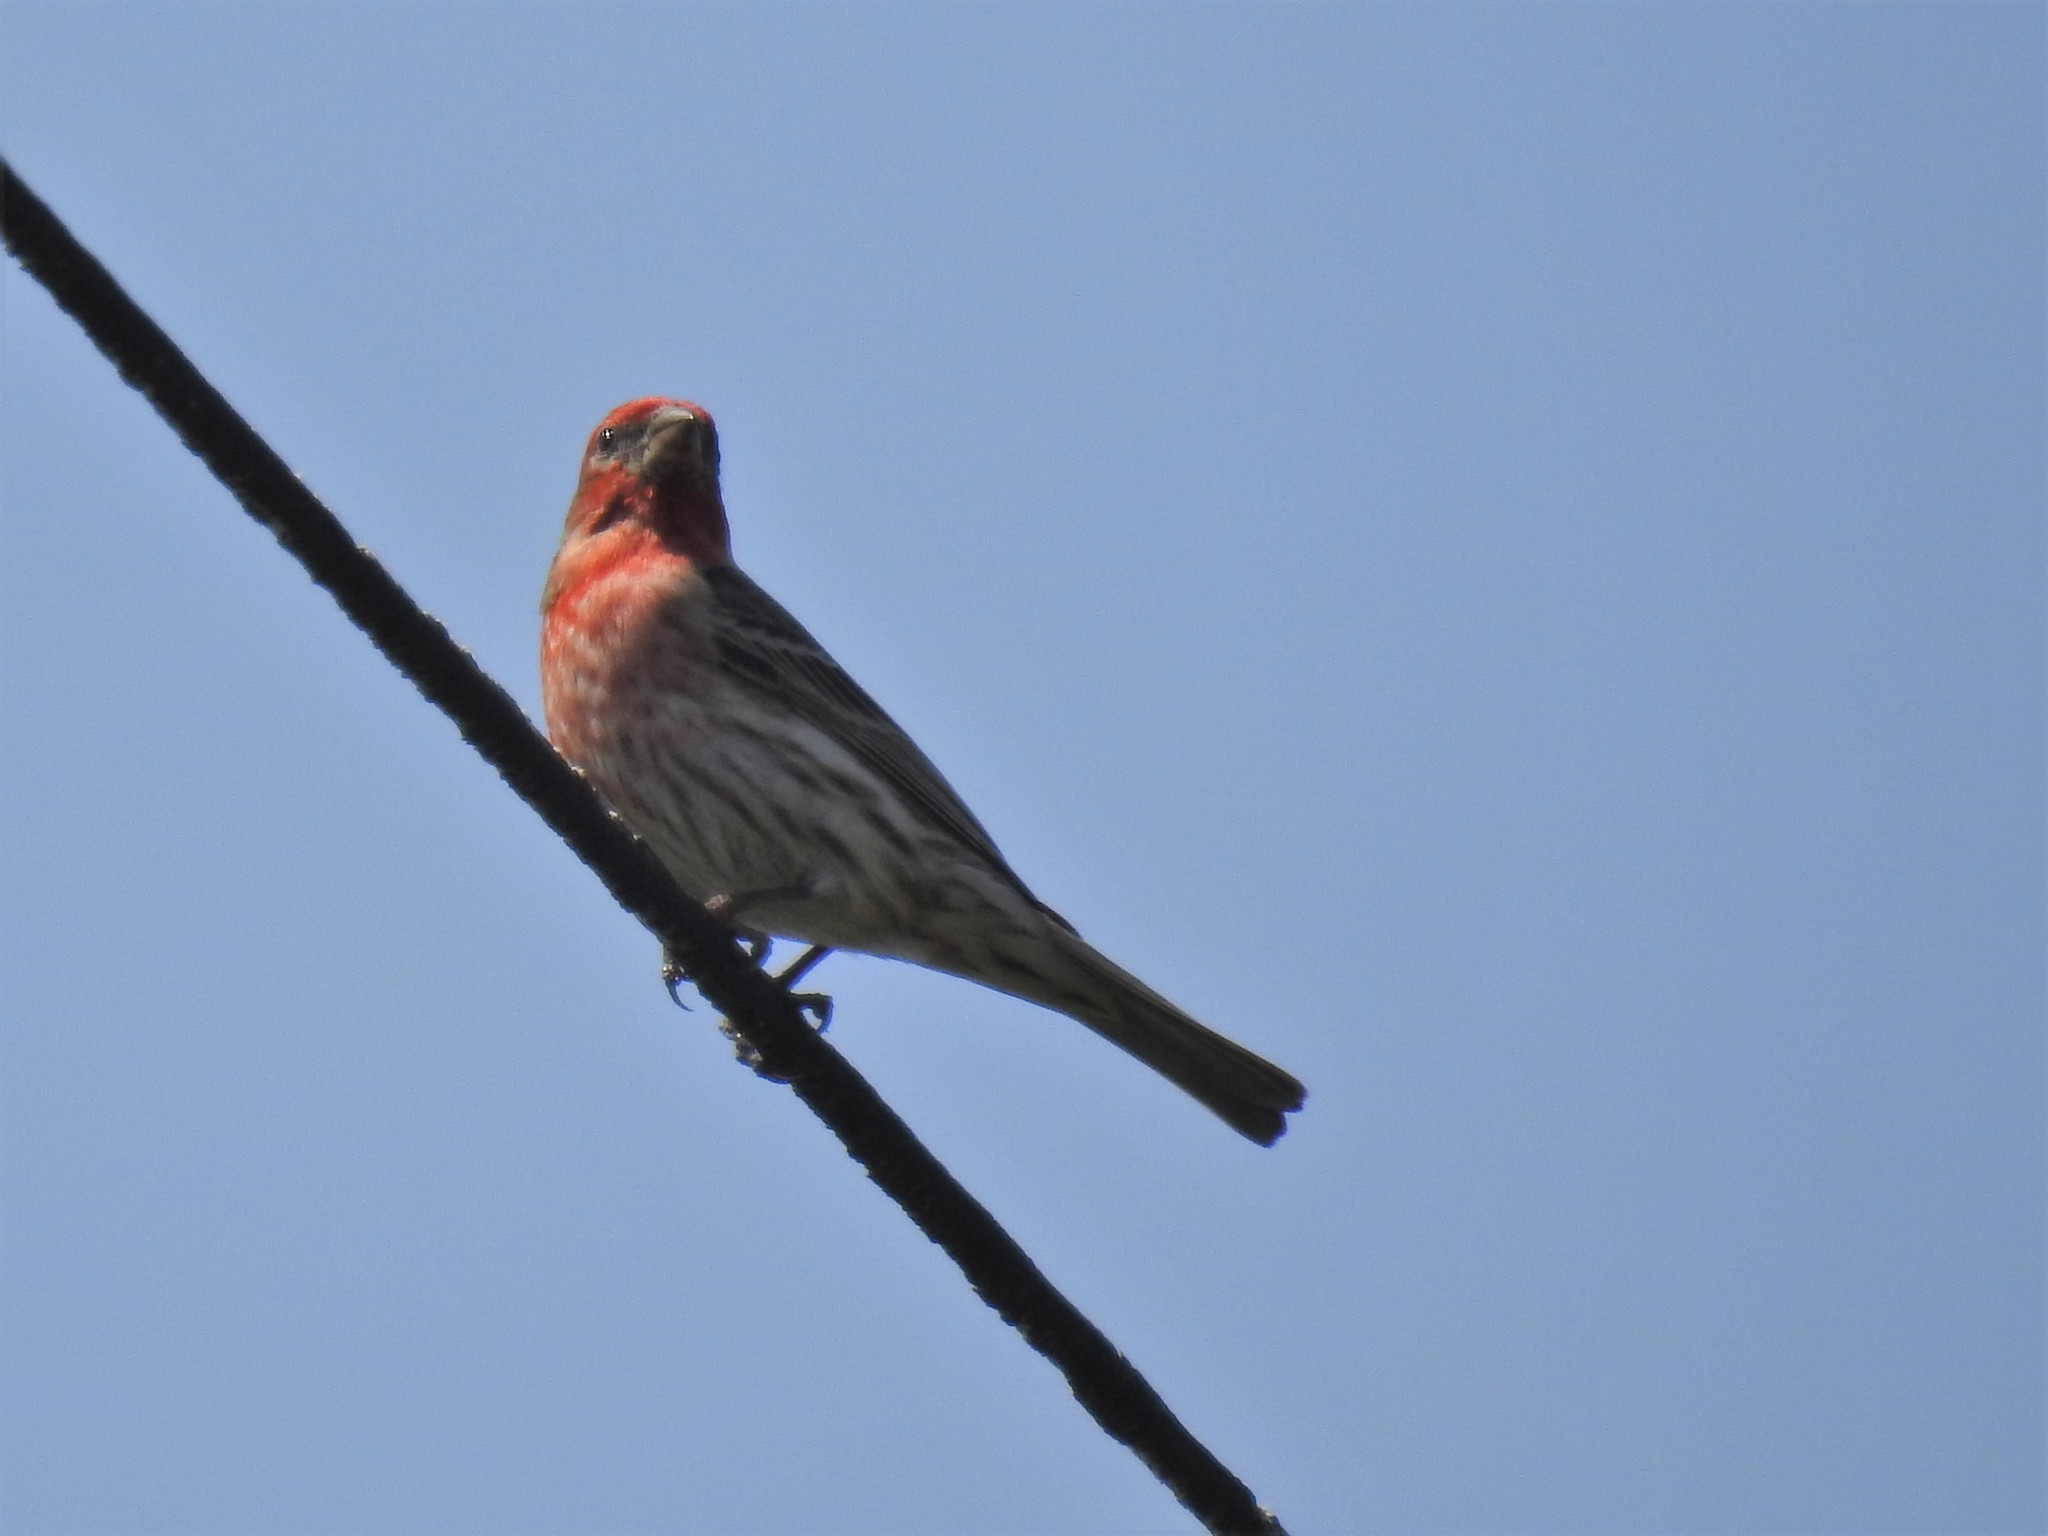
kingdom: Animalia
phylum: Chordata
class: Aves
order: Passeriformes
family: Fringillidae
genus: Haemorhous
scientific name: Haemorhous mexicanus
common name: House finch
